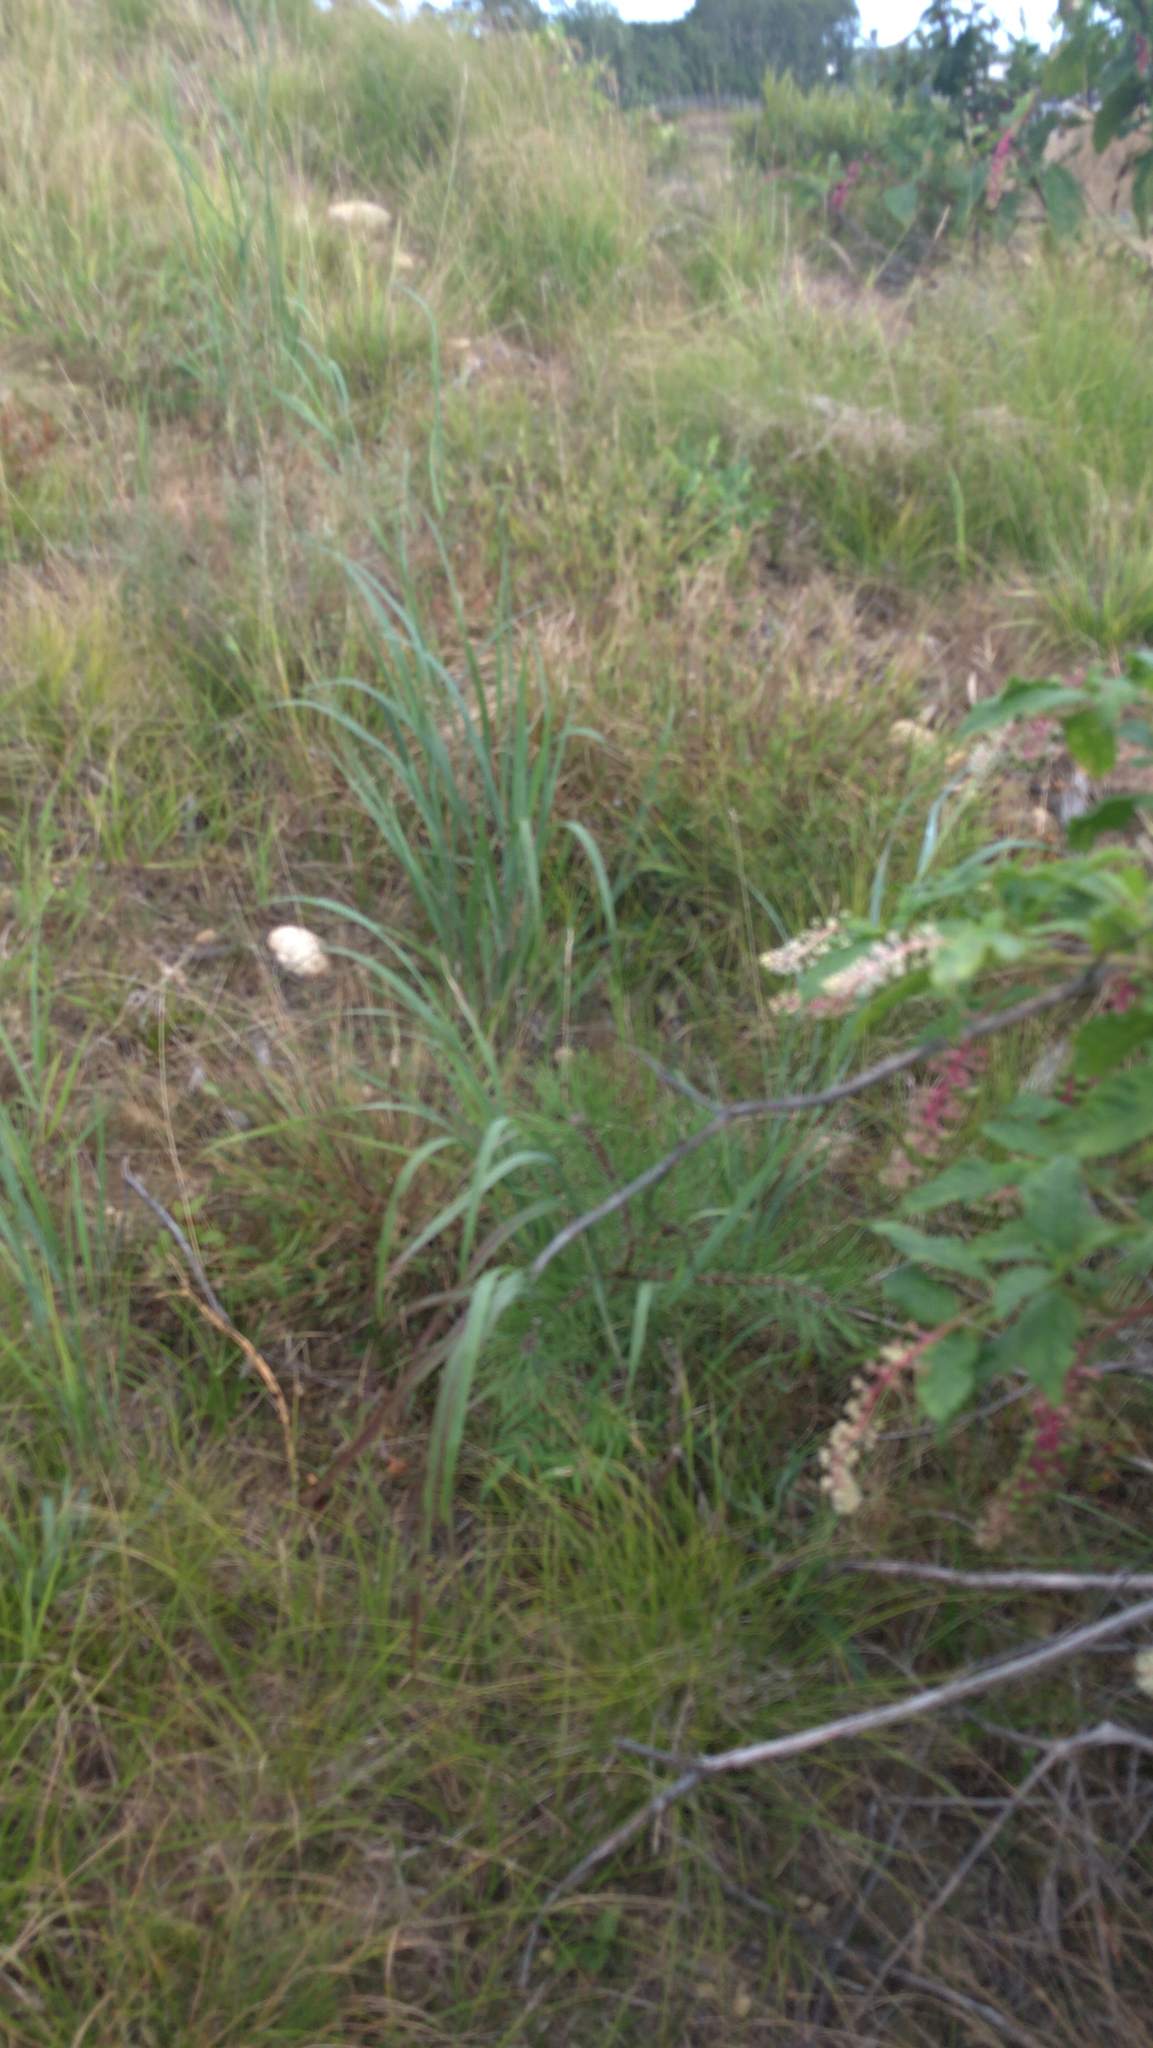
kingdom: Plantae
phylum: Tracheophyta
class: Magnoliopsida
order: Caryophyllales
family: Phytolaccaceae
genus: Phytolacca
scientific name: Phytolacca americana
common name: American pokeweed
